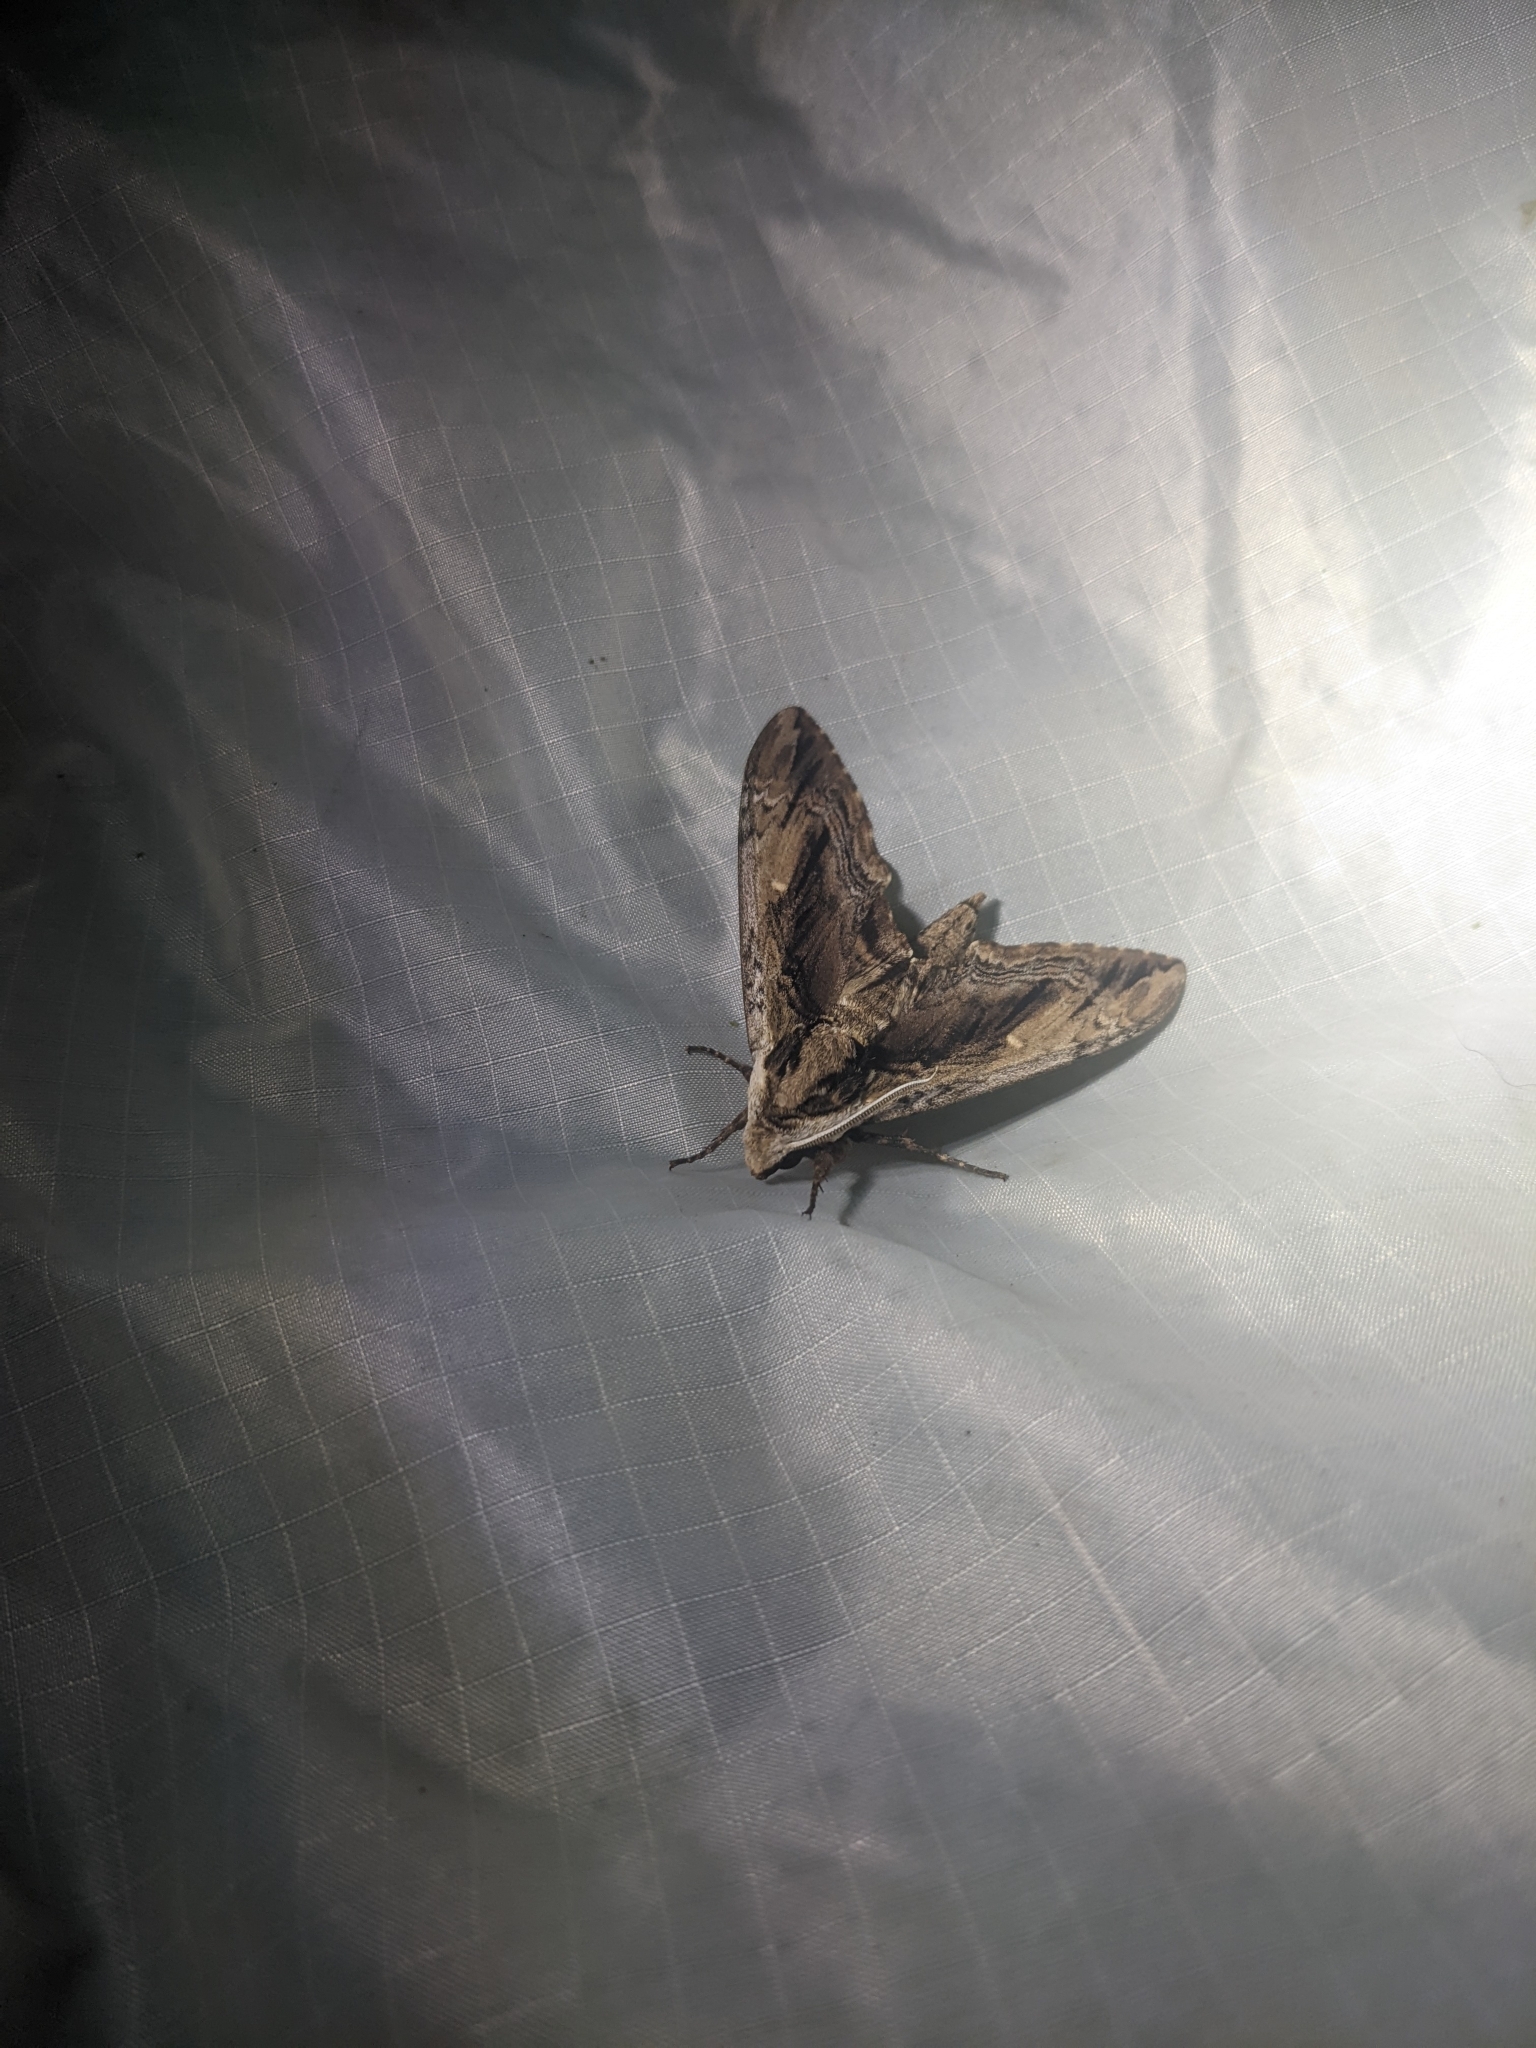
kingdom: Animalia
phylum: Arthropoda
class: Insecta
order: Lepidoptera
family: Sphingidae
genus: Ceratomia
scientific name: Ceratomia amyntor
